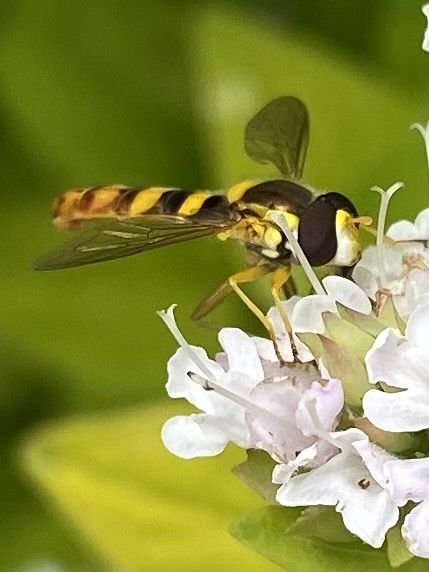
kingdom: Animalia
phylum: Arthropoda
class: Insecta
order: Diptera
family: Syrphidae
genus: Sphaerophoria
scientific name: Sphaerophoria scripta
